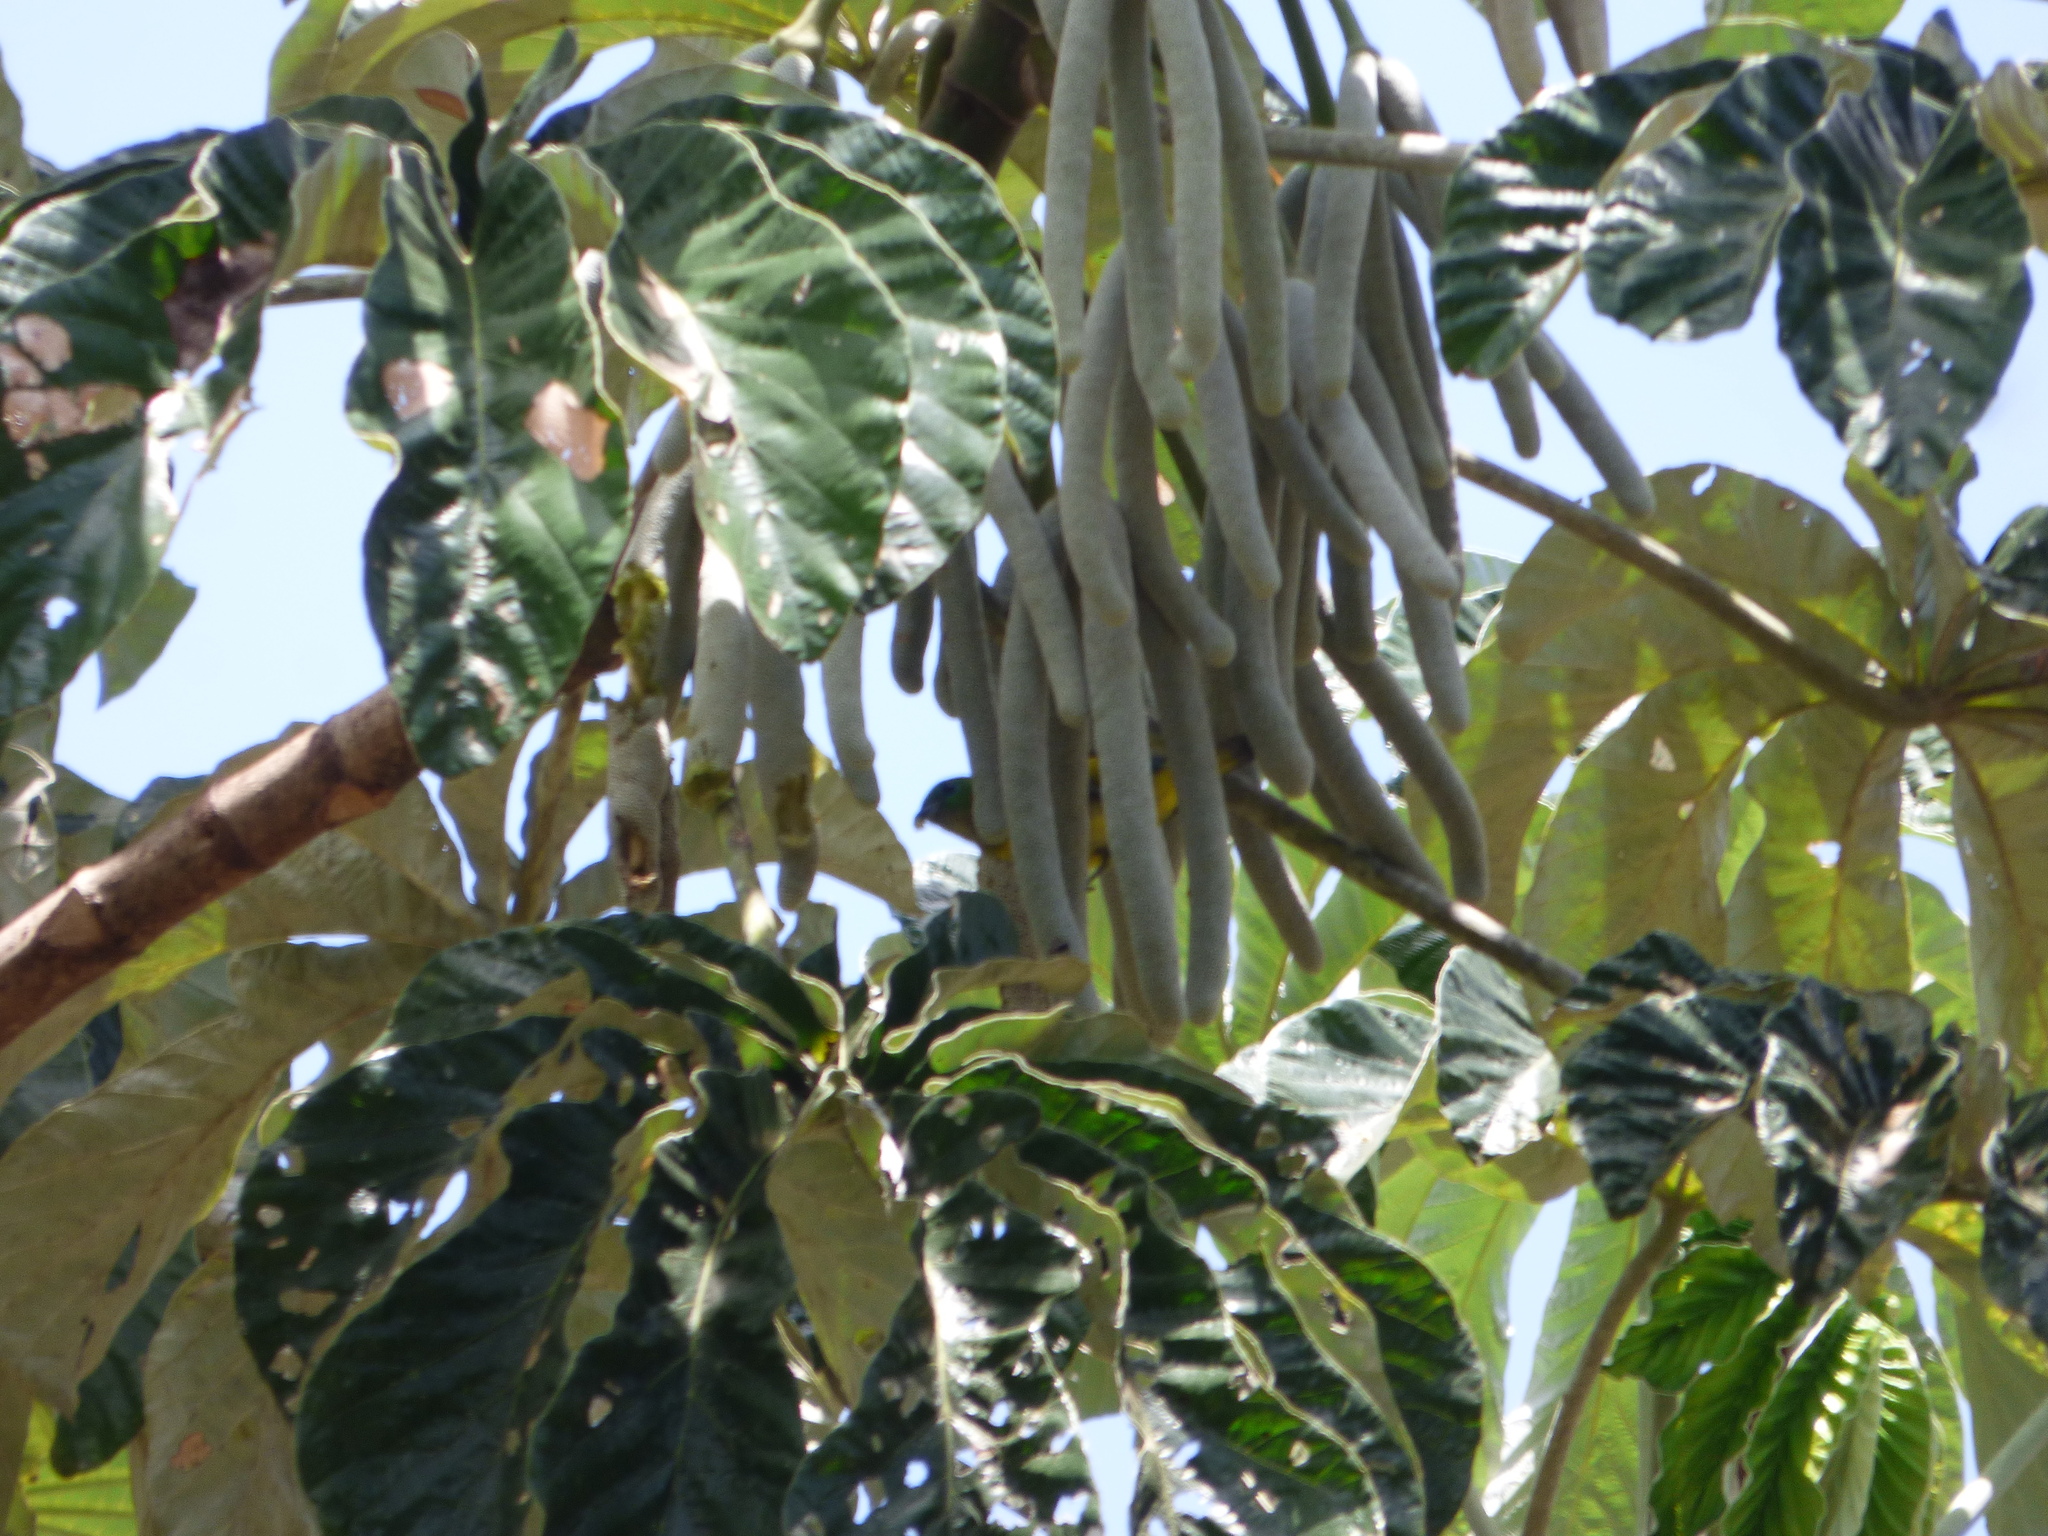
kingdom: Plantae
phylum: Tracheophyta
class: Magnoliopsida
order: Rosales
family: Urticaceae
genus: Cecropia
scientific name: Cecropia pachystachya
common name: Ambay pumpwood
